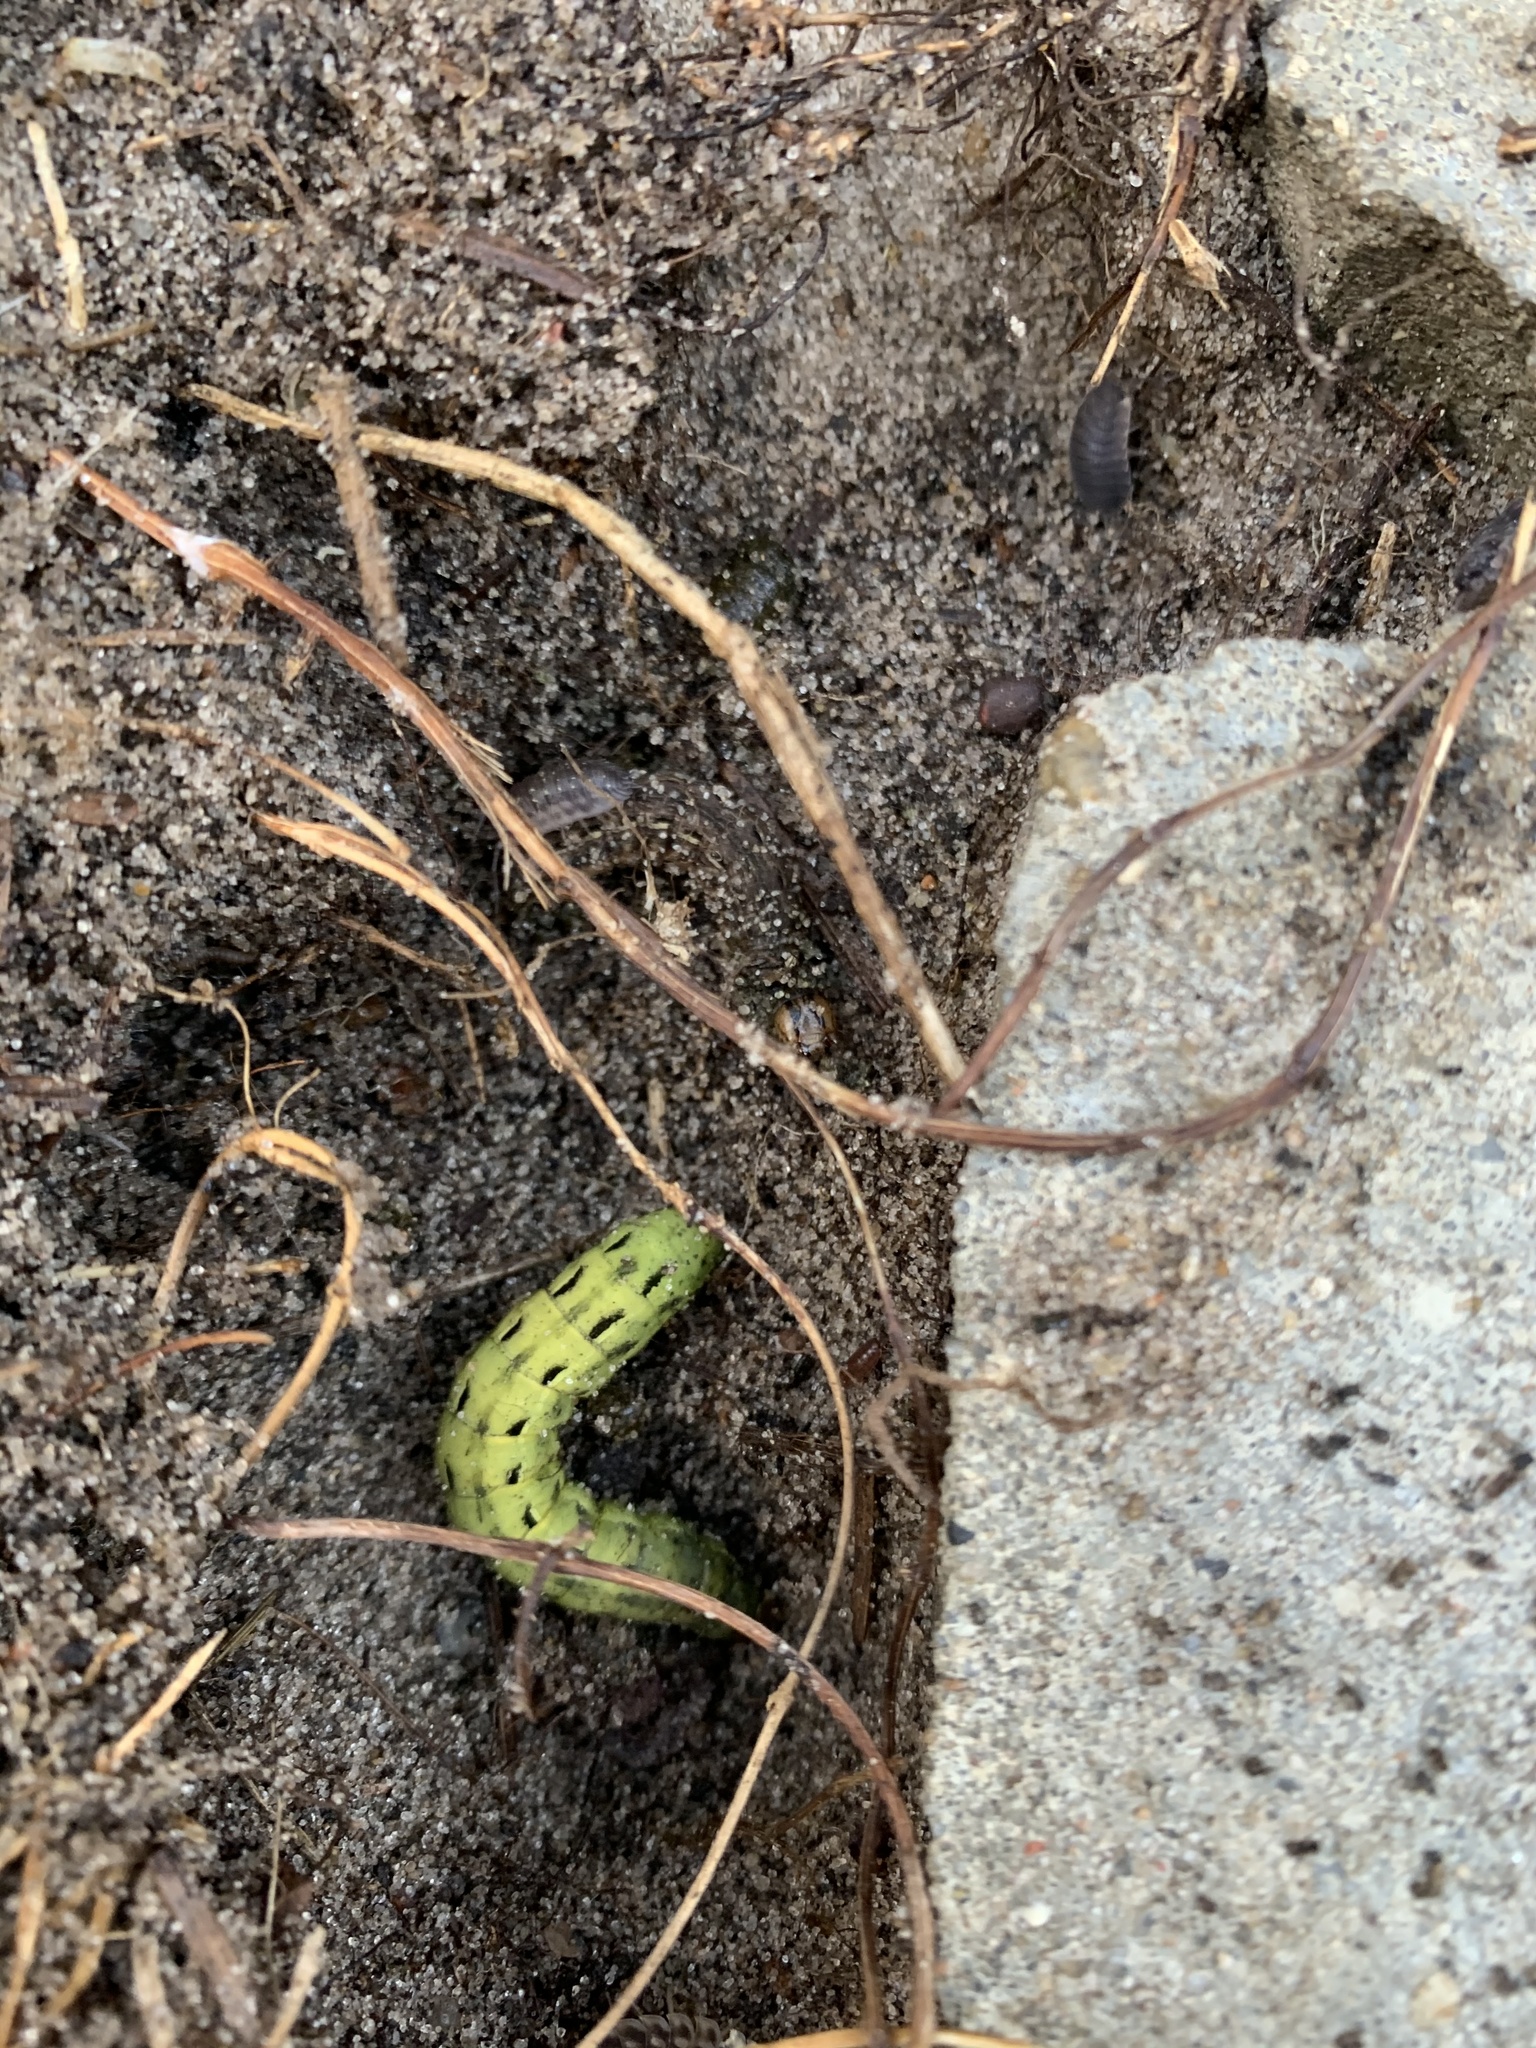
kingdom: Animalia
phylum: Arthropoda
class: Insecta
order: Lepidoptera
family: Noctuidae
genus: Noctua
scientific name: Noctua pronuba
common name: Large yellow underwing
